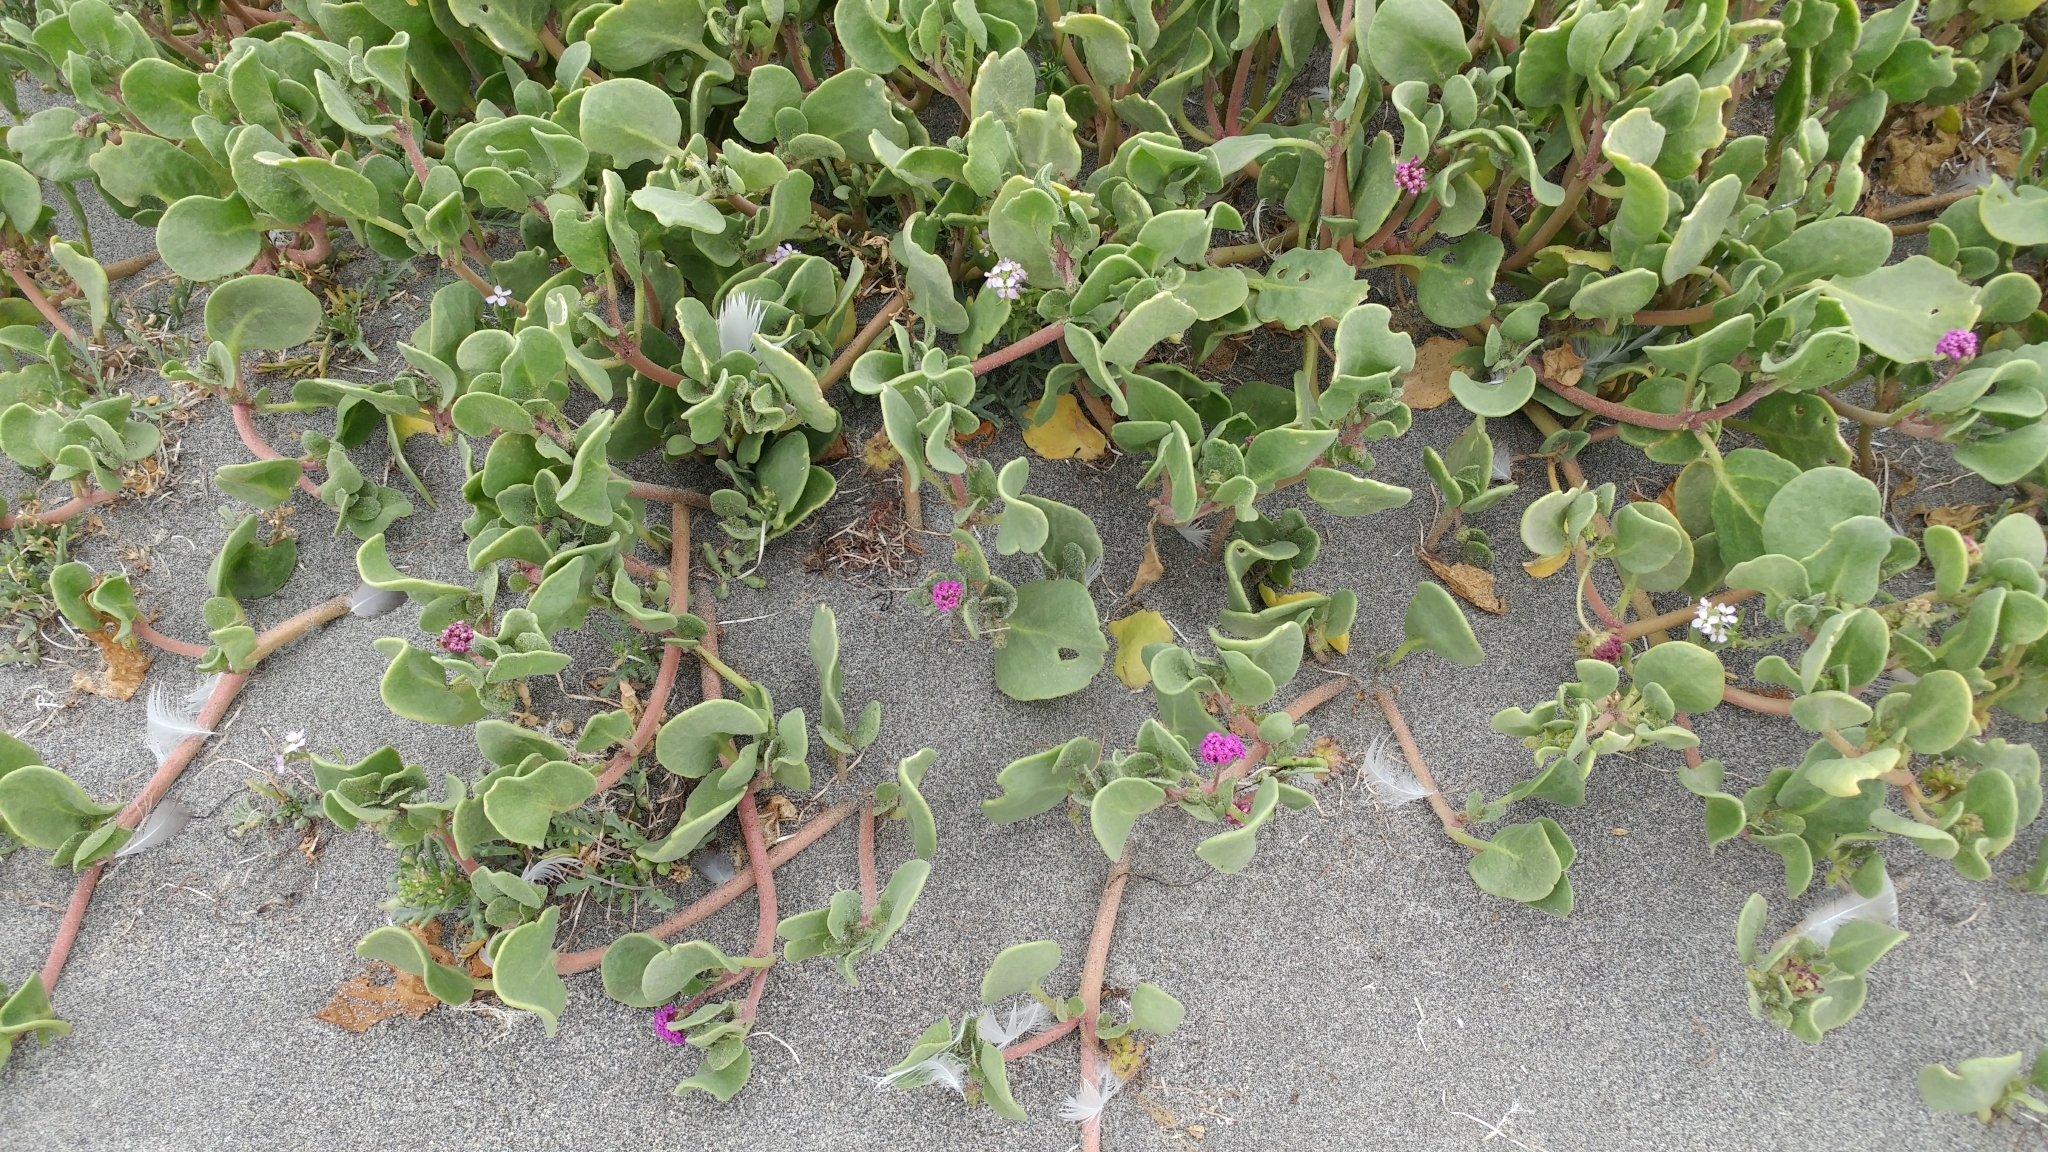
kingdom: Plantae
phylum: Tracheophyta
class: Magnoliopsida
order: Caryophyllales
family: Nyctaginaceae
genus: Abronia
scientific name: Abronia maritima
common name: Red sand-verbena
